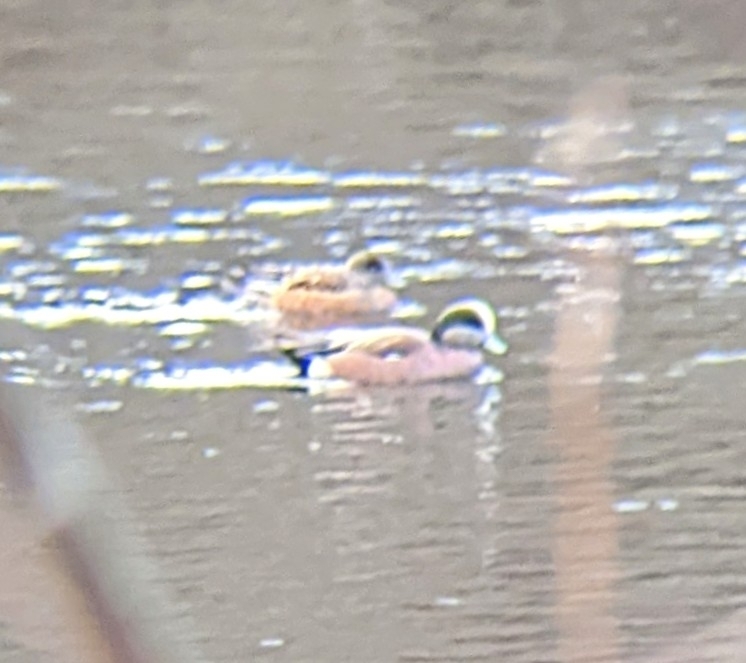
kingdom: Animalia
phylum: Chordata
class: Aves
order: Anseriformes
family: Anatidae
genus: Mareca
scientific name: Mareca americana
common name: American wigeon
